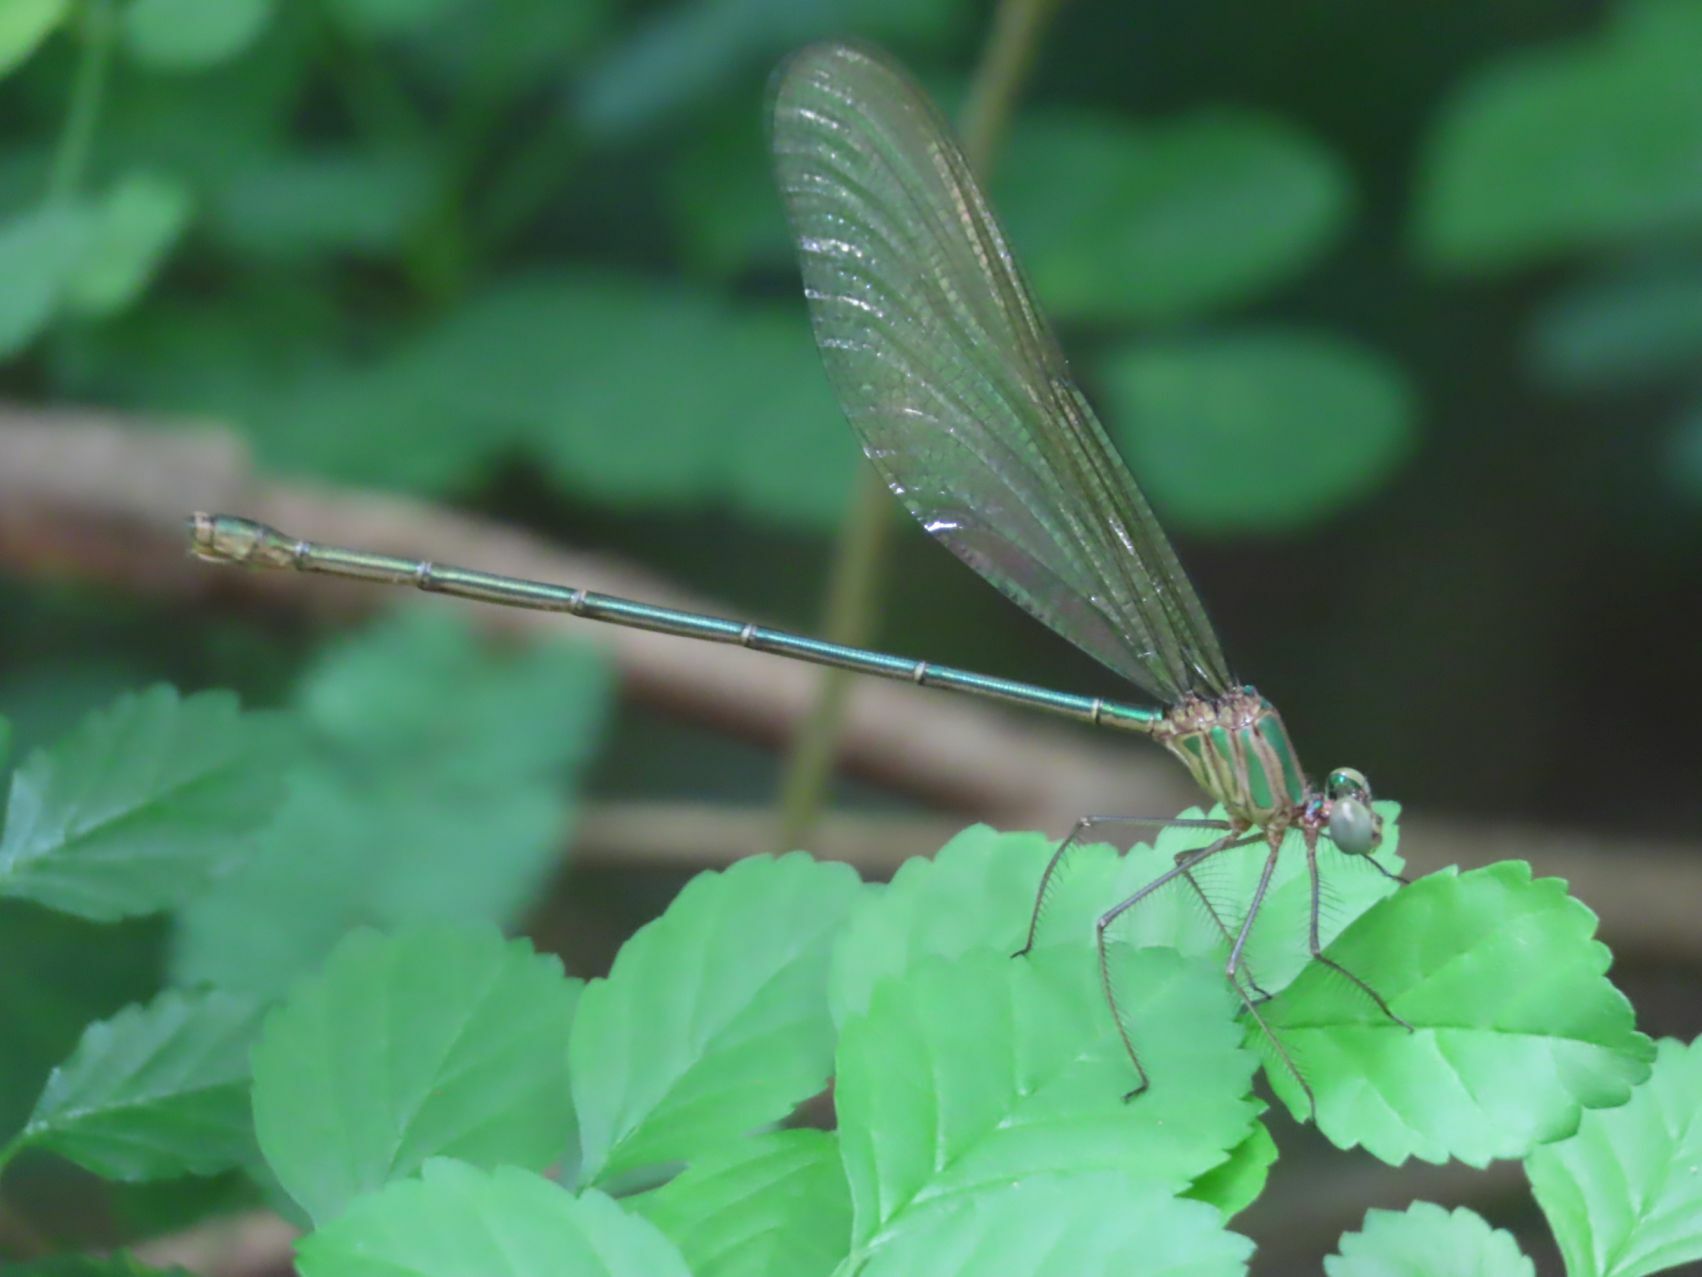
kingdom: Animalia
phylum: Arthropoda
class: Insecta
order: Odonata
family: Calopterygidae
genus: Phaon
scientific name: Phaon iridipennis
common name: Glistening demoiselle
